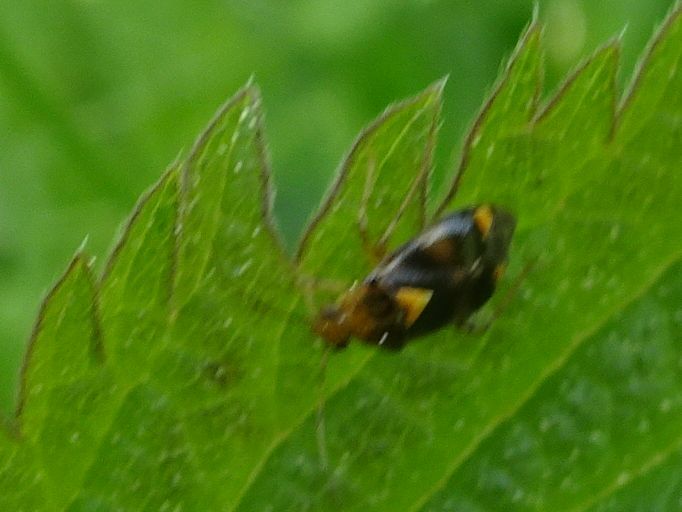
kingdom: Animalia
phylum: Arthropoda
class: Insecta
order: Hemiptera
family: Miridae
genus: Liocoris
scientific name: Liocoris tripustulatus
